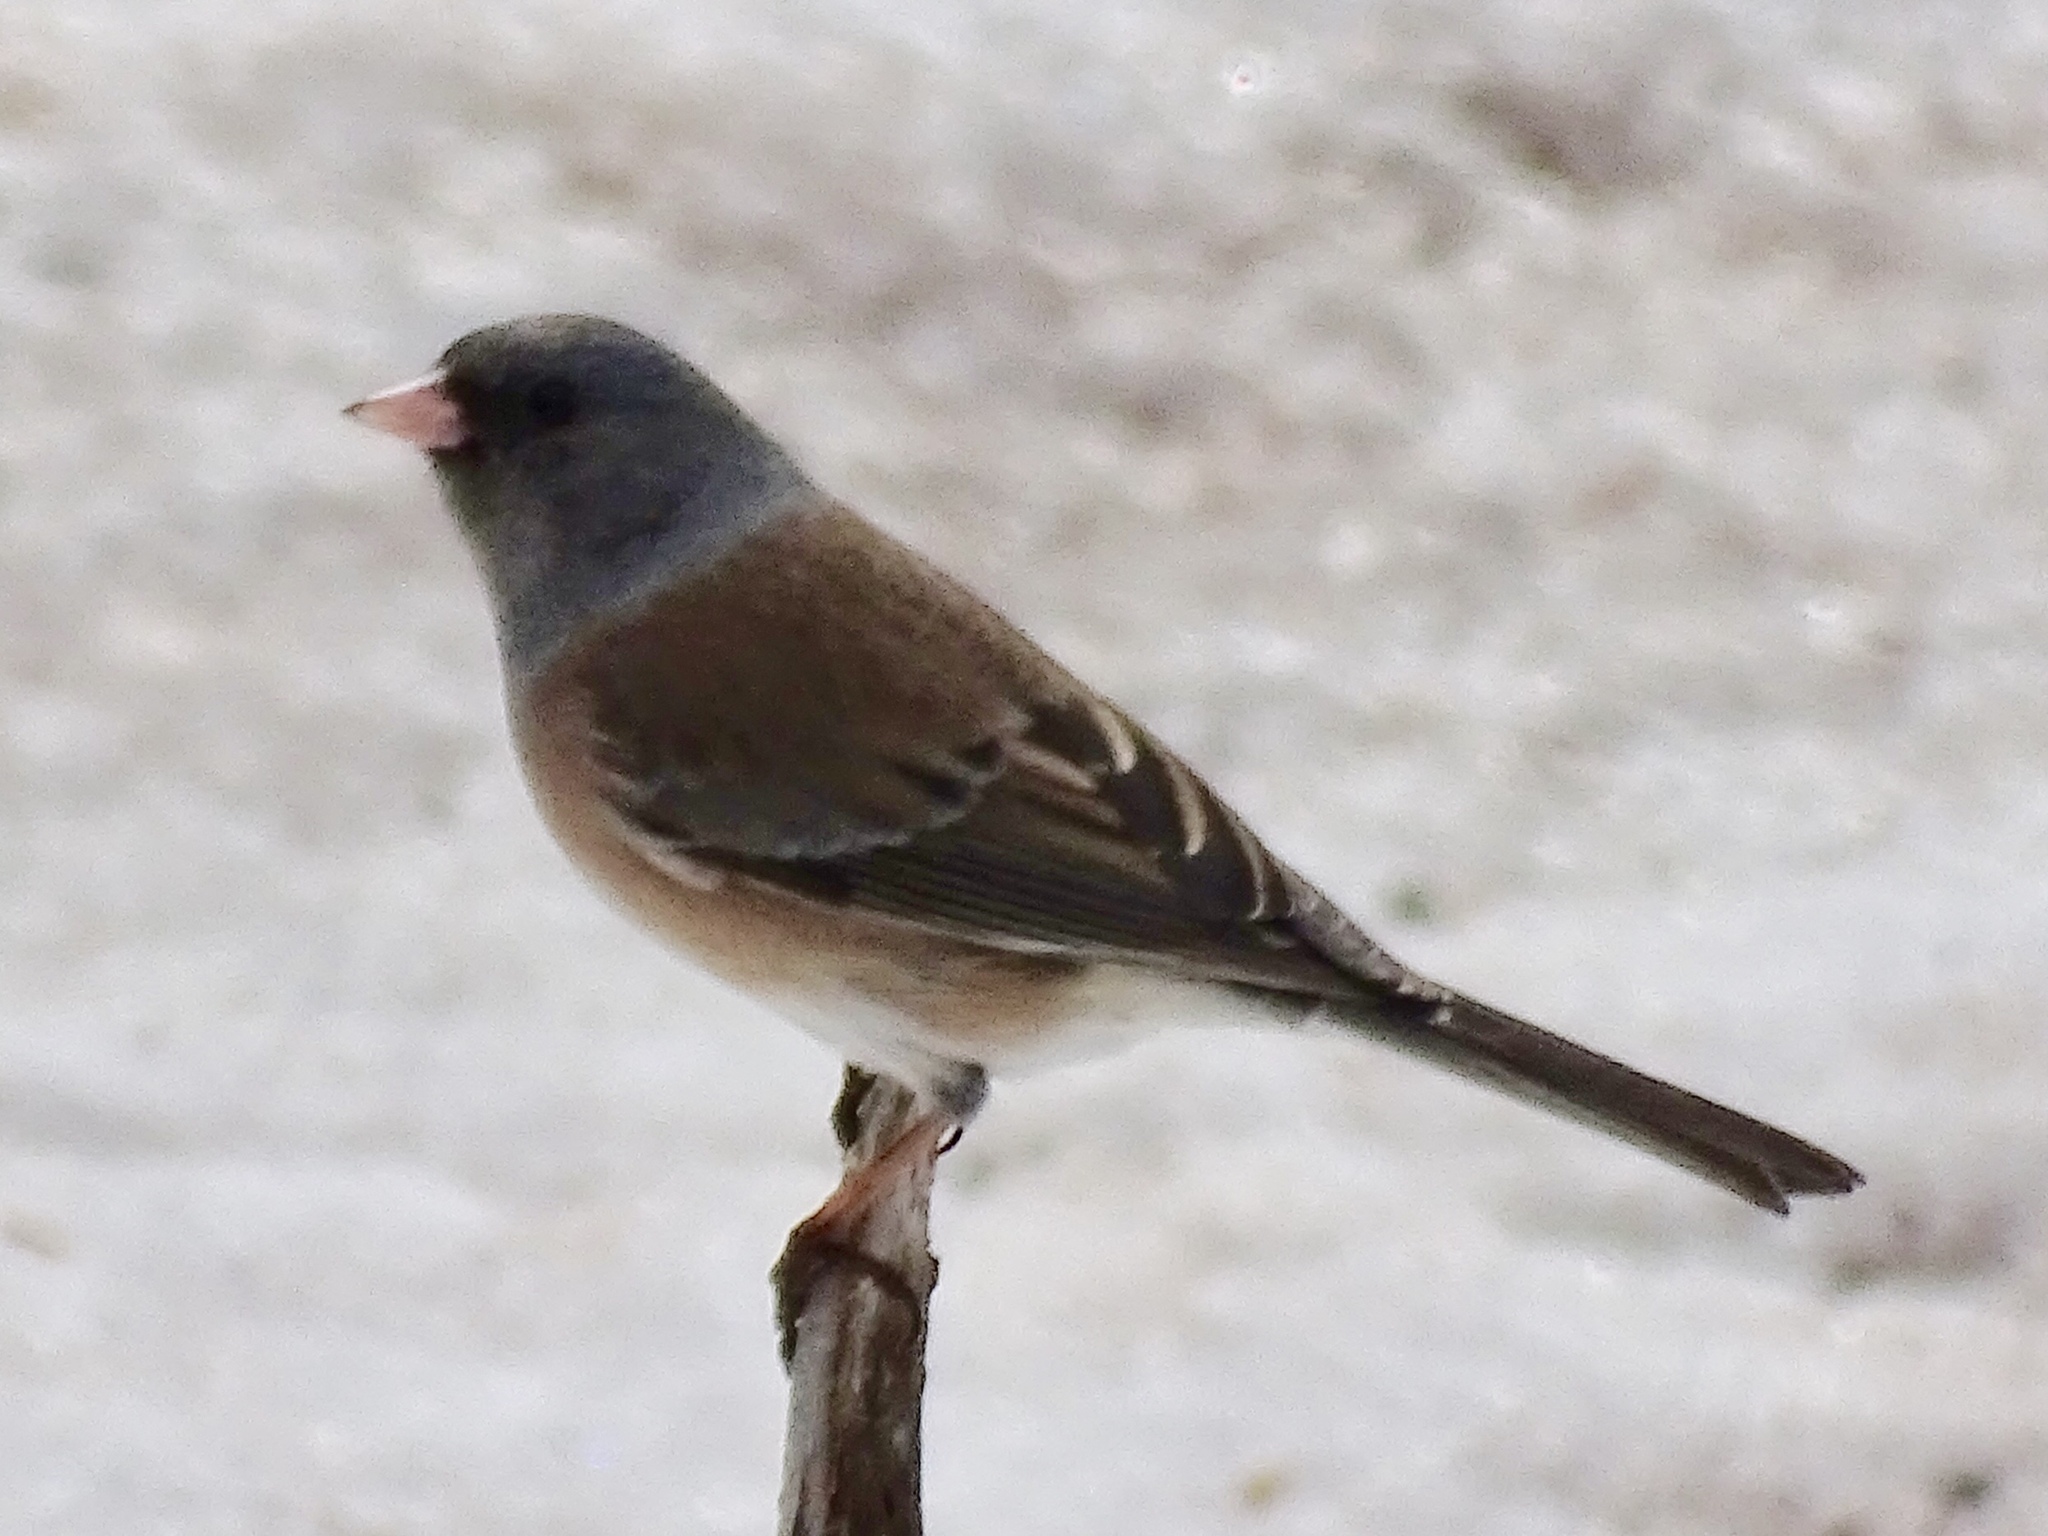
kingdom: Animalia
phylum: Chordata
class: Aves
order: Passeriformes
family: Passerellidae
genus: Junco
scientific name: Junco hyemalis
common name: Dark-eyed junco
